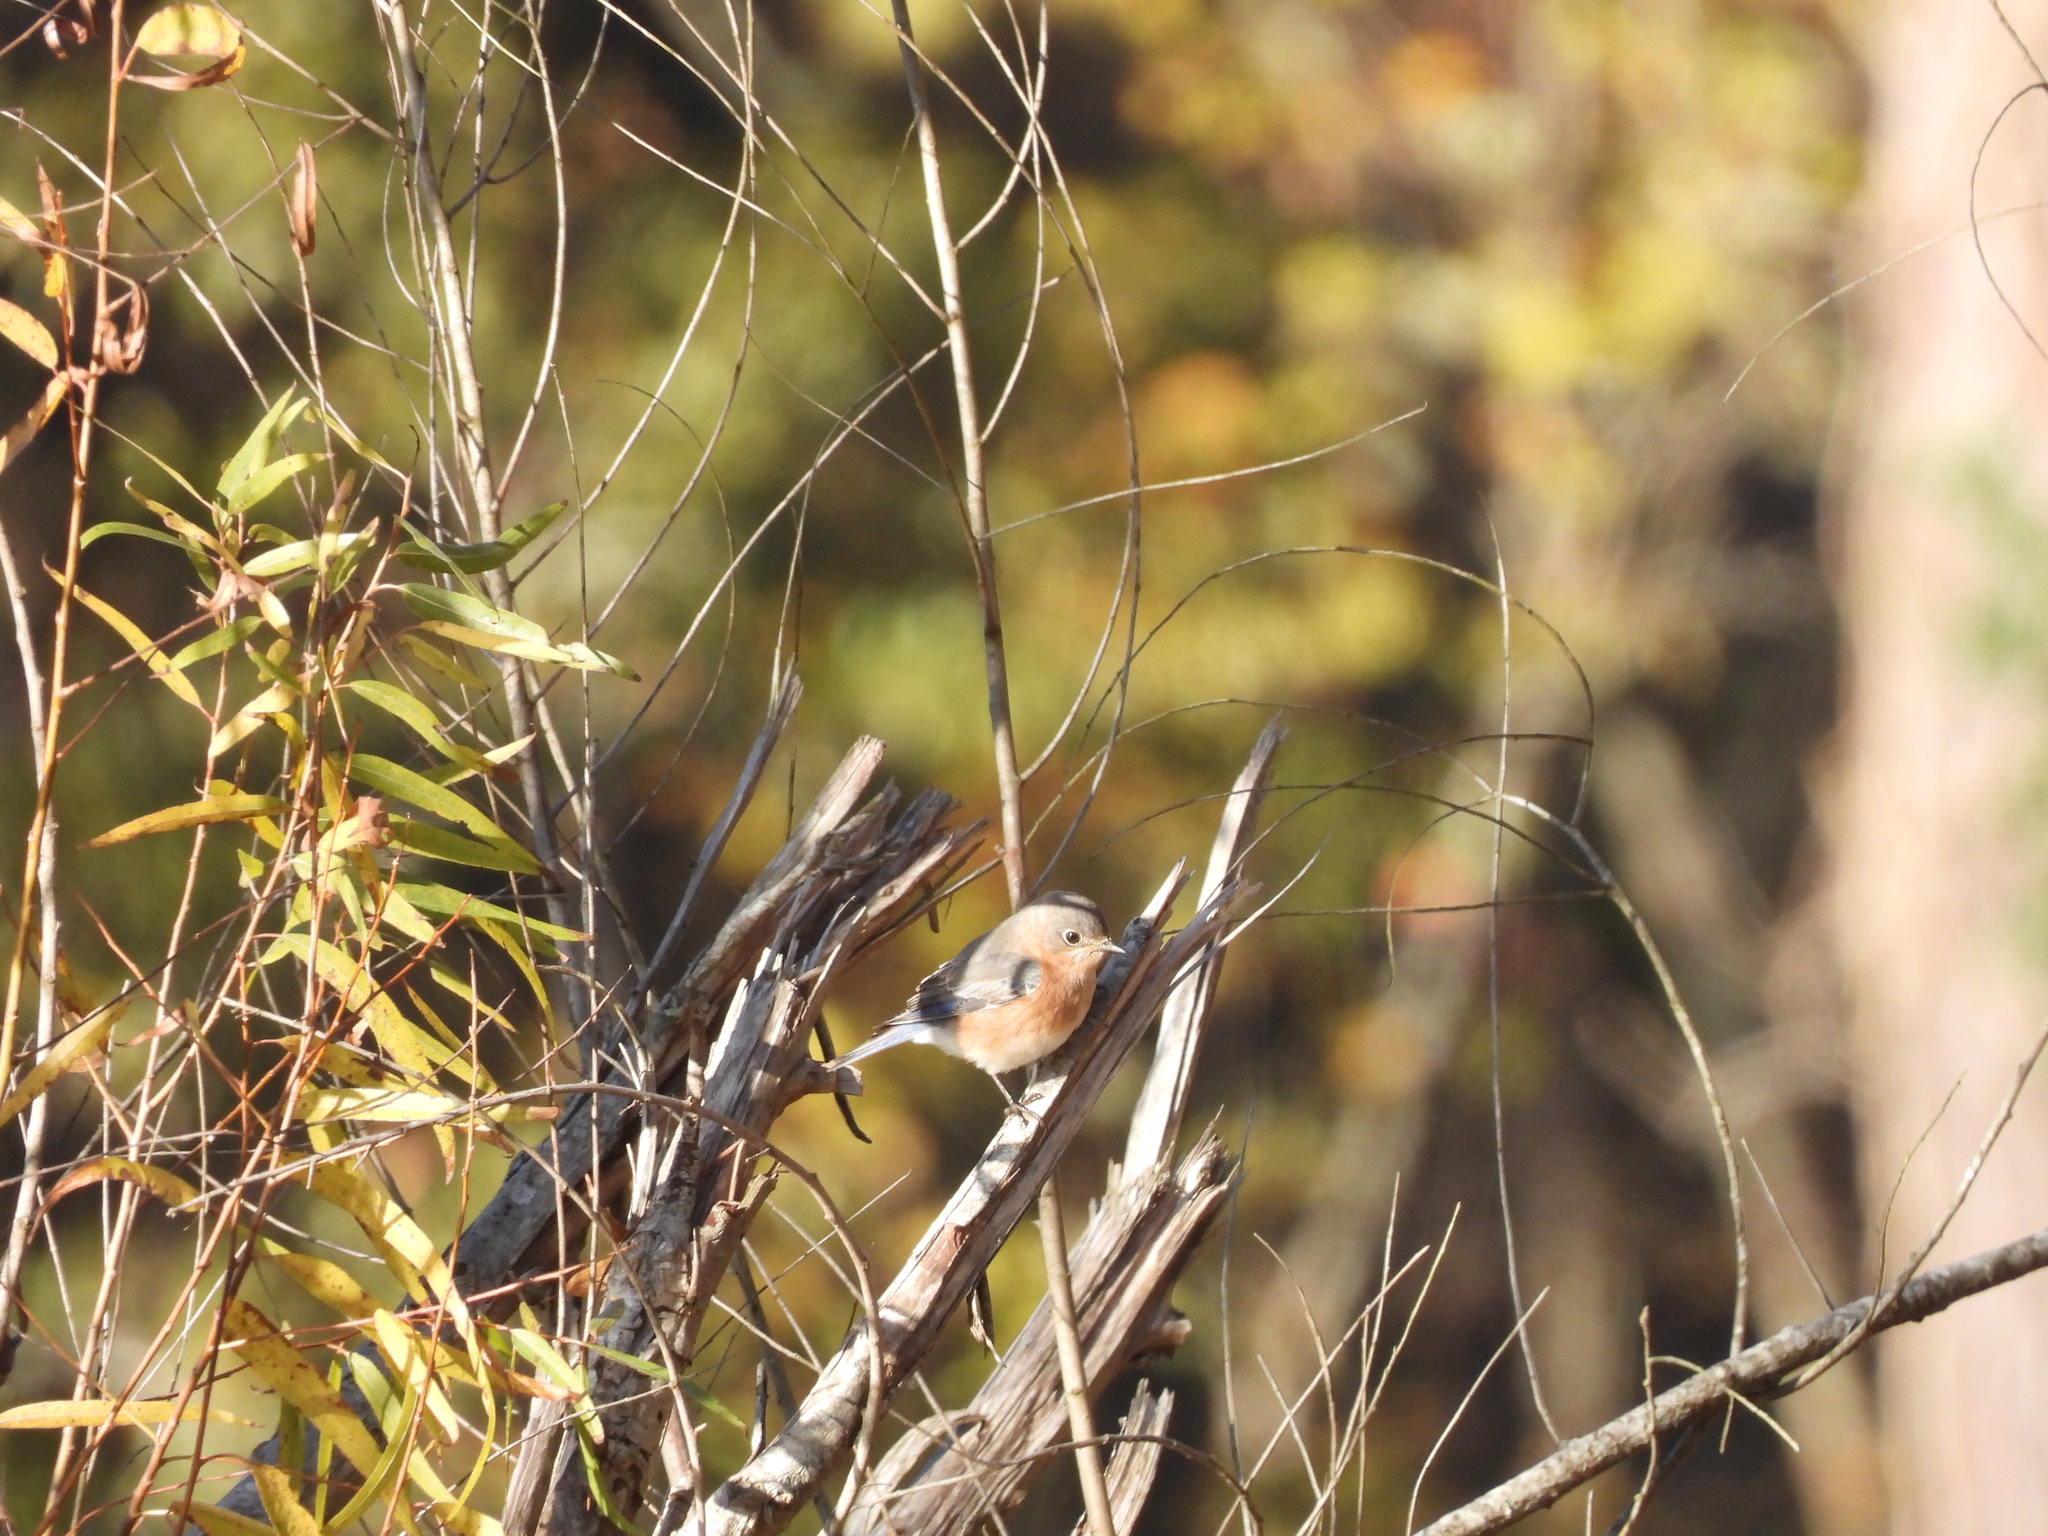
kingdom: Animalia
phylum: Chordata
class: Aves
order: Passeriformes
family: Turdidae
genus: Sialia
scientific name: Sialia sialis
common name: Eastern bluebird
